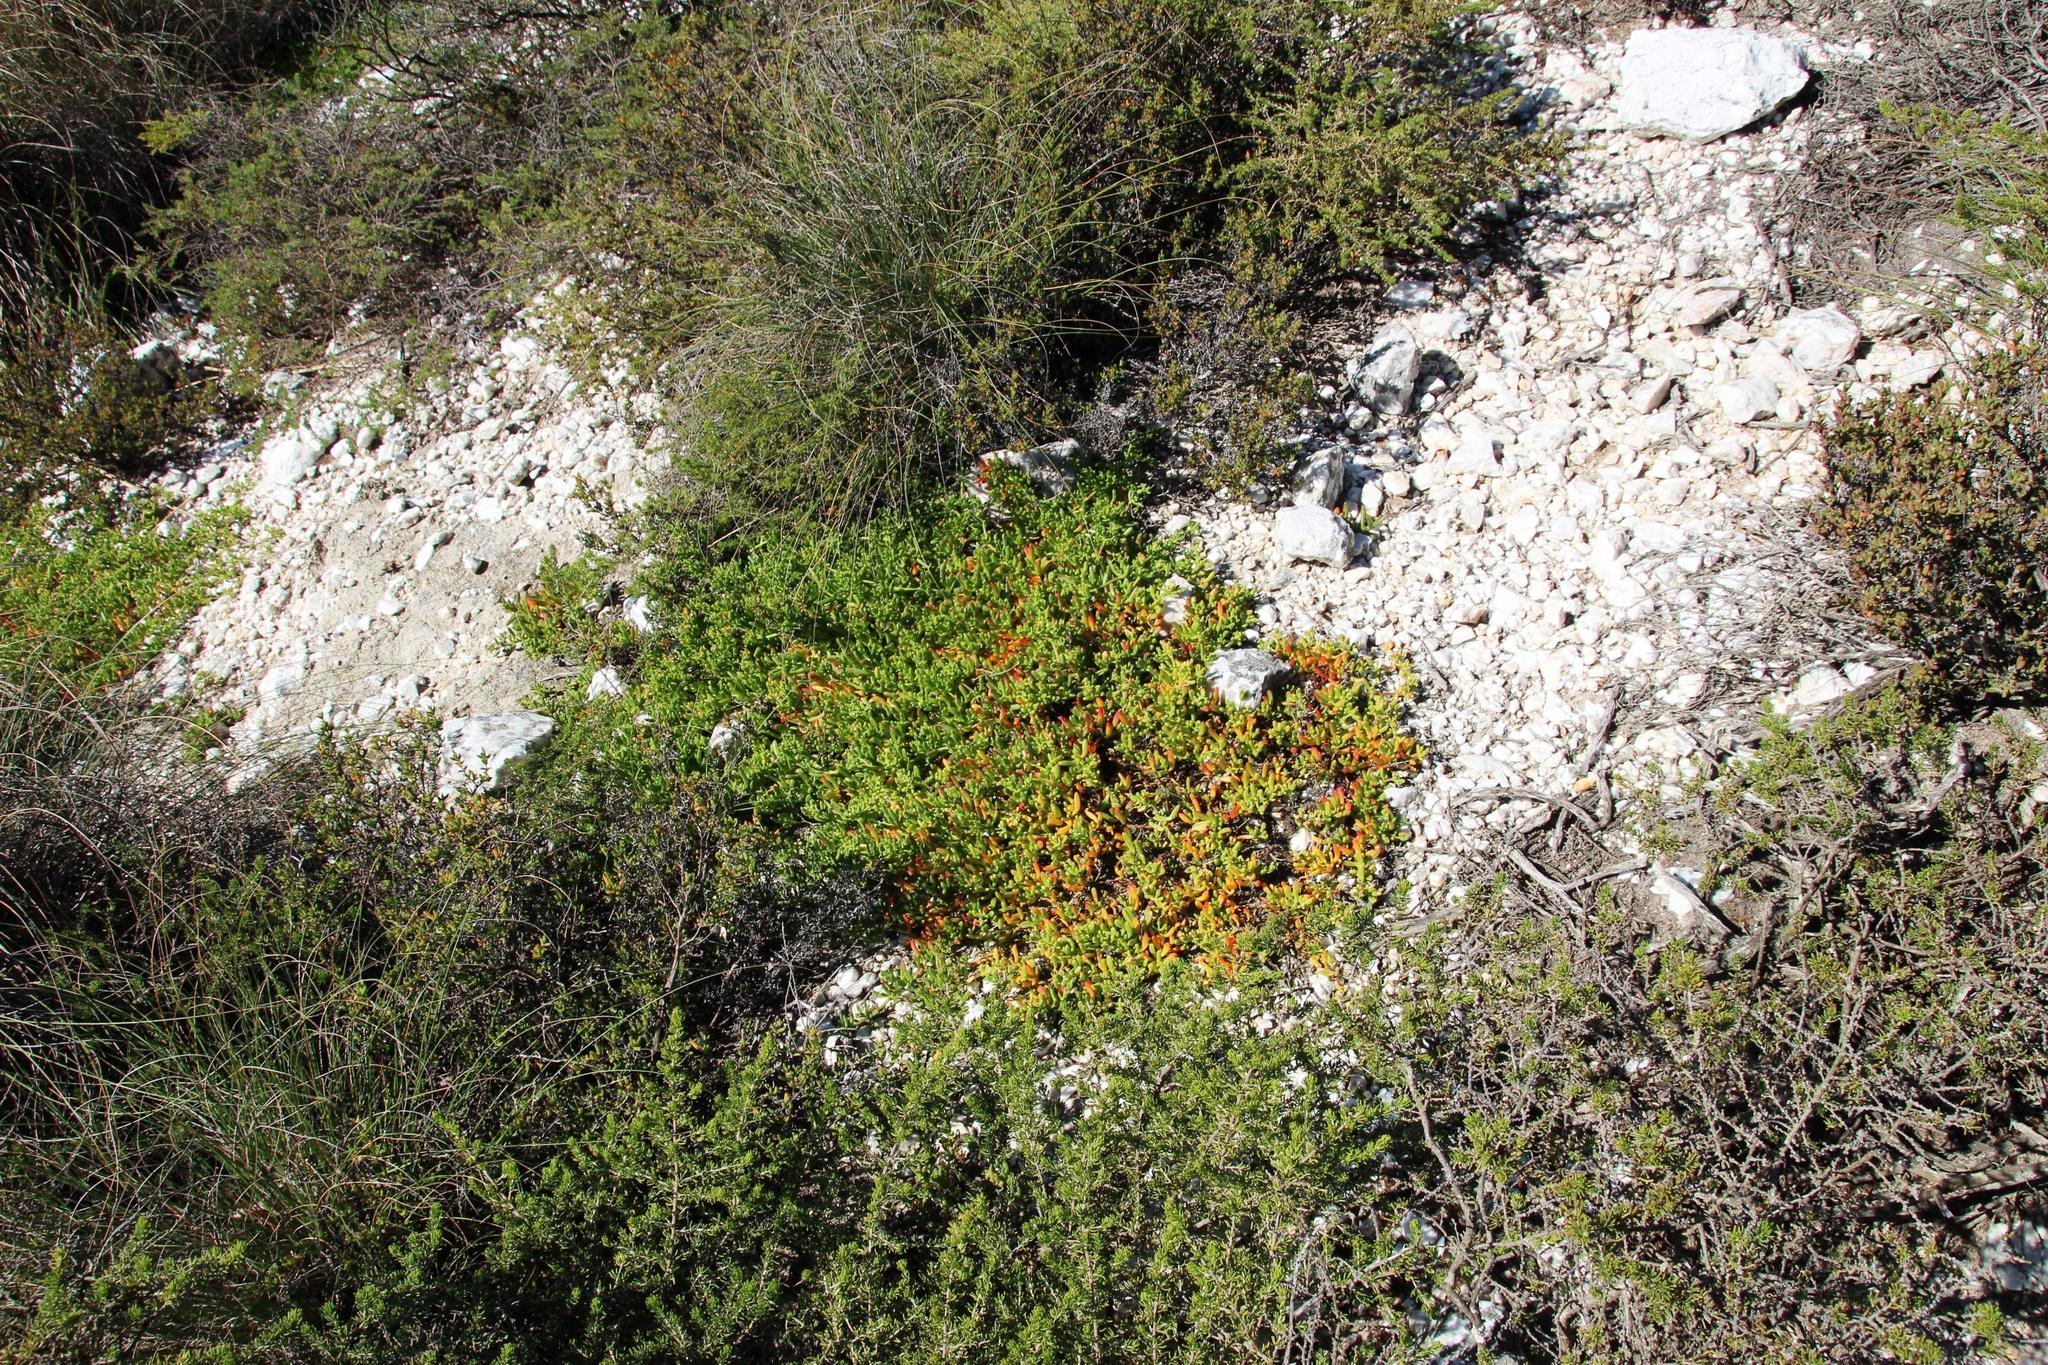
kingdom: Plantae
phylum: Tracheophyta
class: Magnoliopsida
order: Caryophyllales
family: Aizoaceae
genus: Mesembryanthemum
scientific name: Mesembryanthemum longistylum
